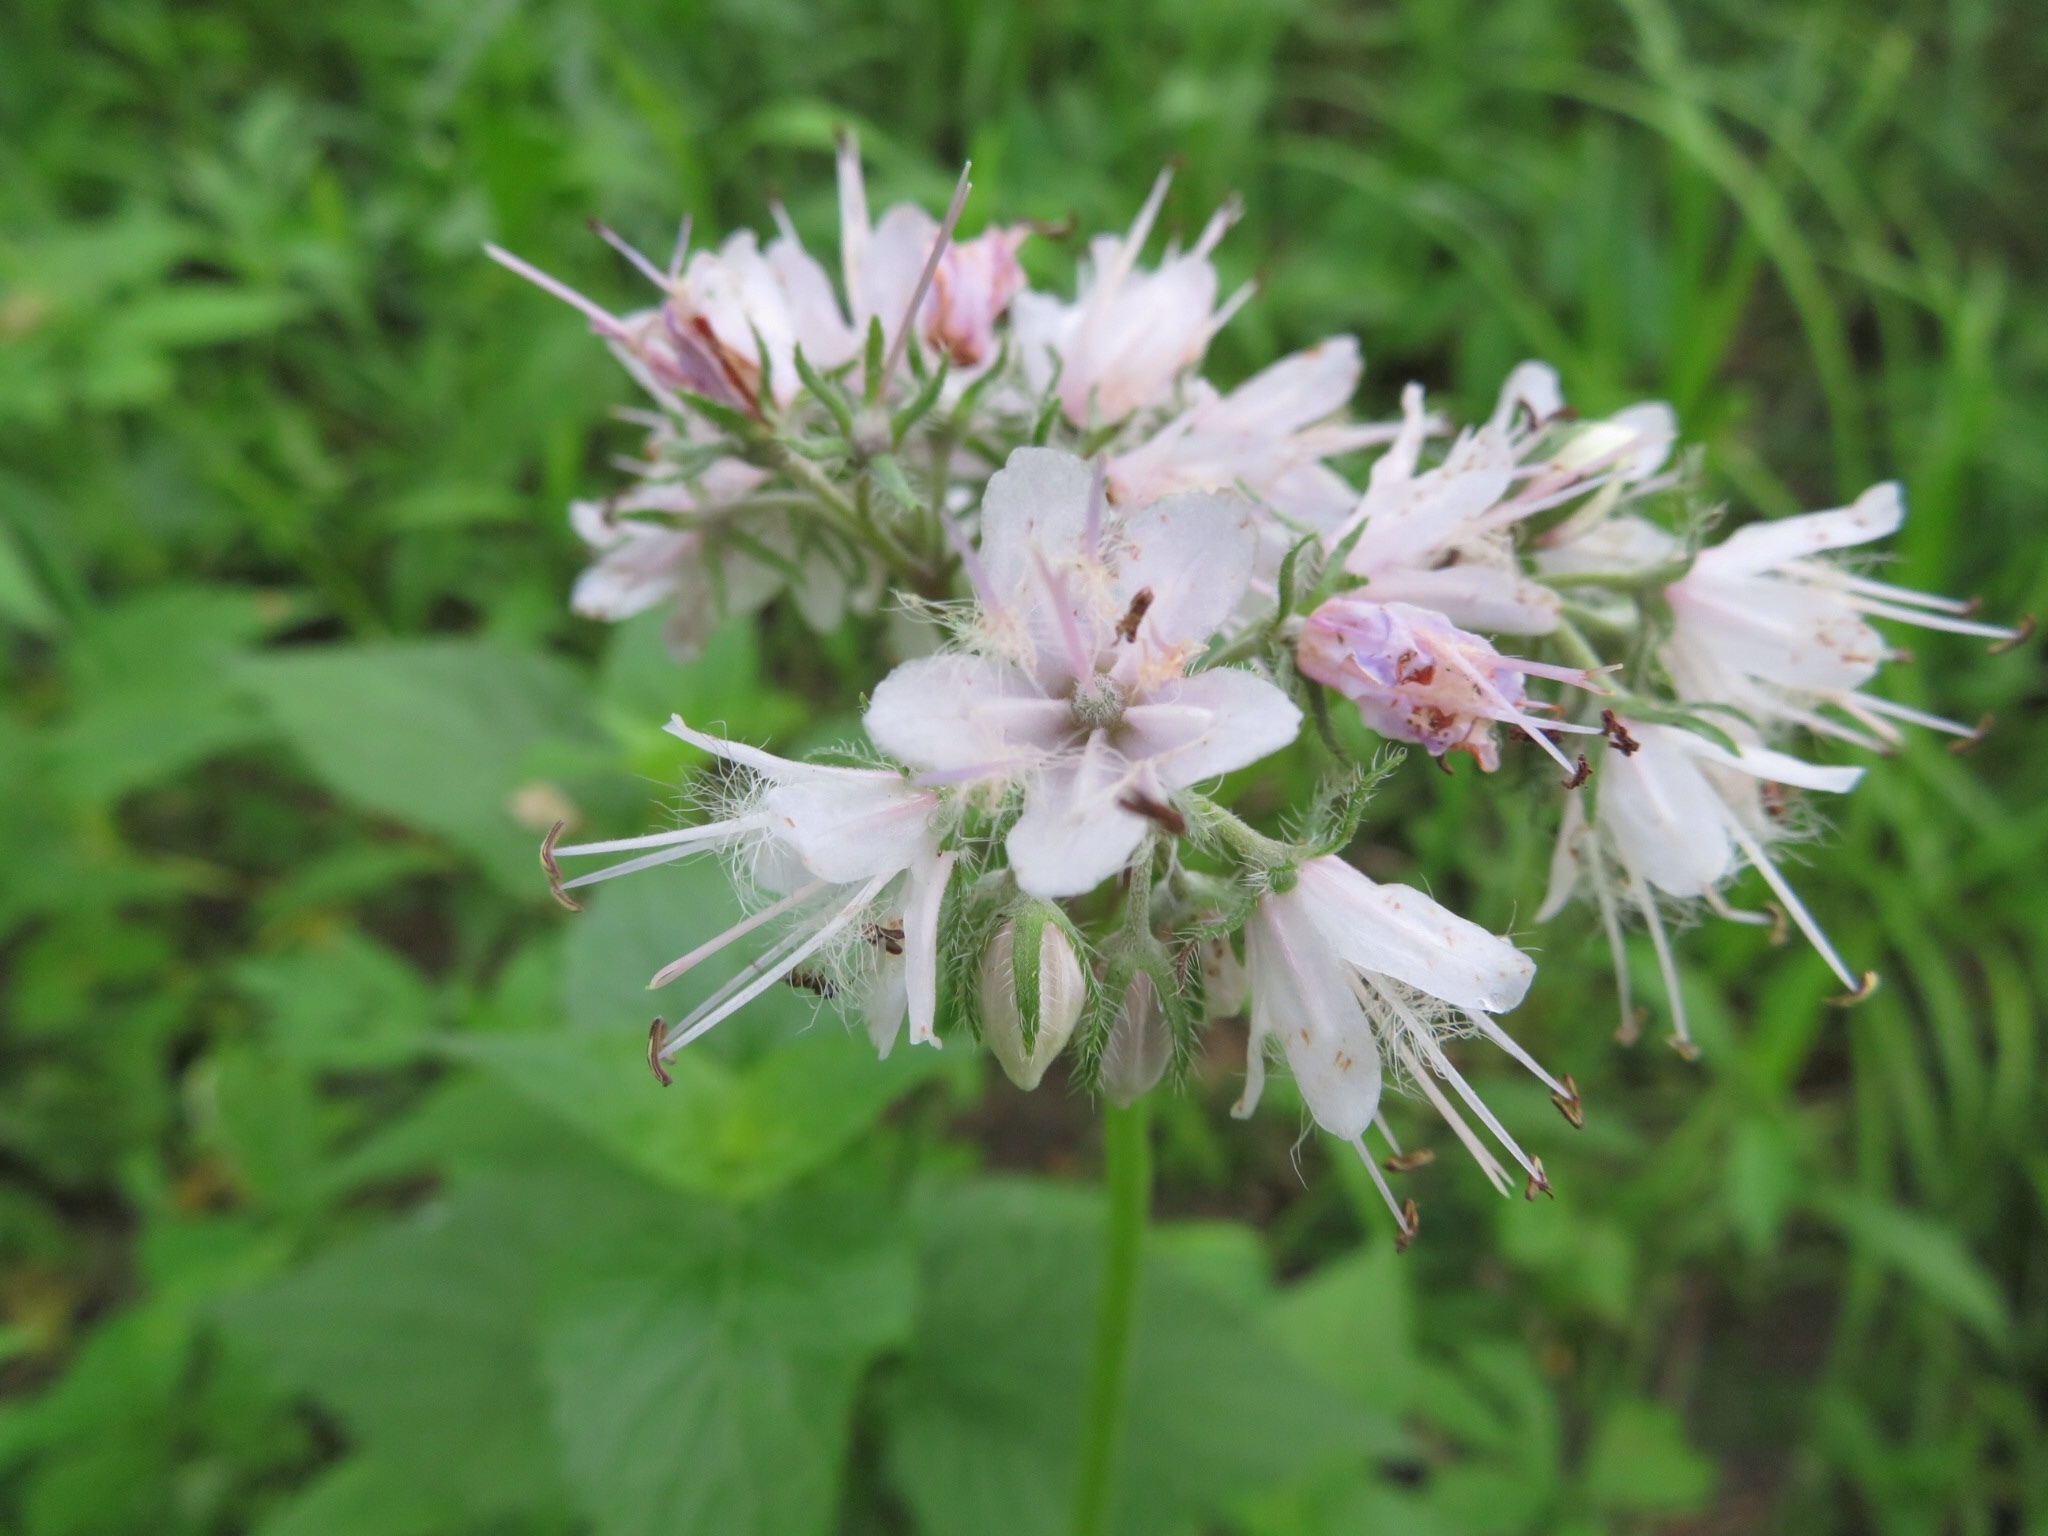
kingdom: Plantae
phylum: Tracheophyta
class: Magnoliopsida
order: Boraginales
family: Hydrophyllaceae
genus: Hydrophyllum
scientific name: Hydrophyllum virginianum
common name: Virginia waterleaf
